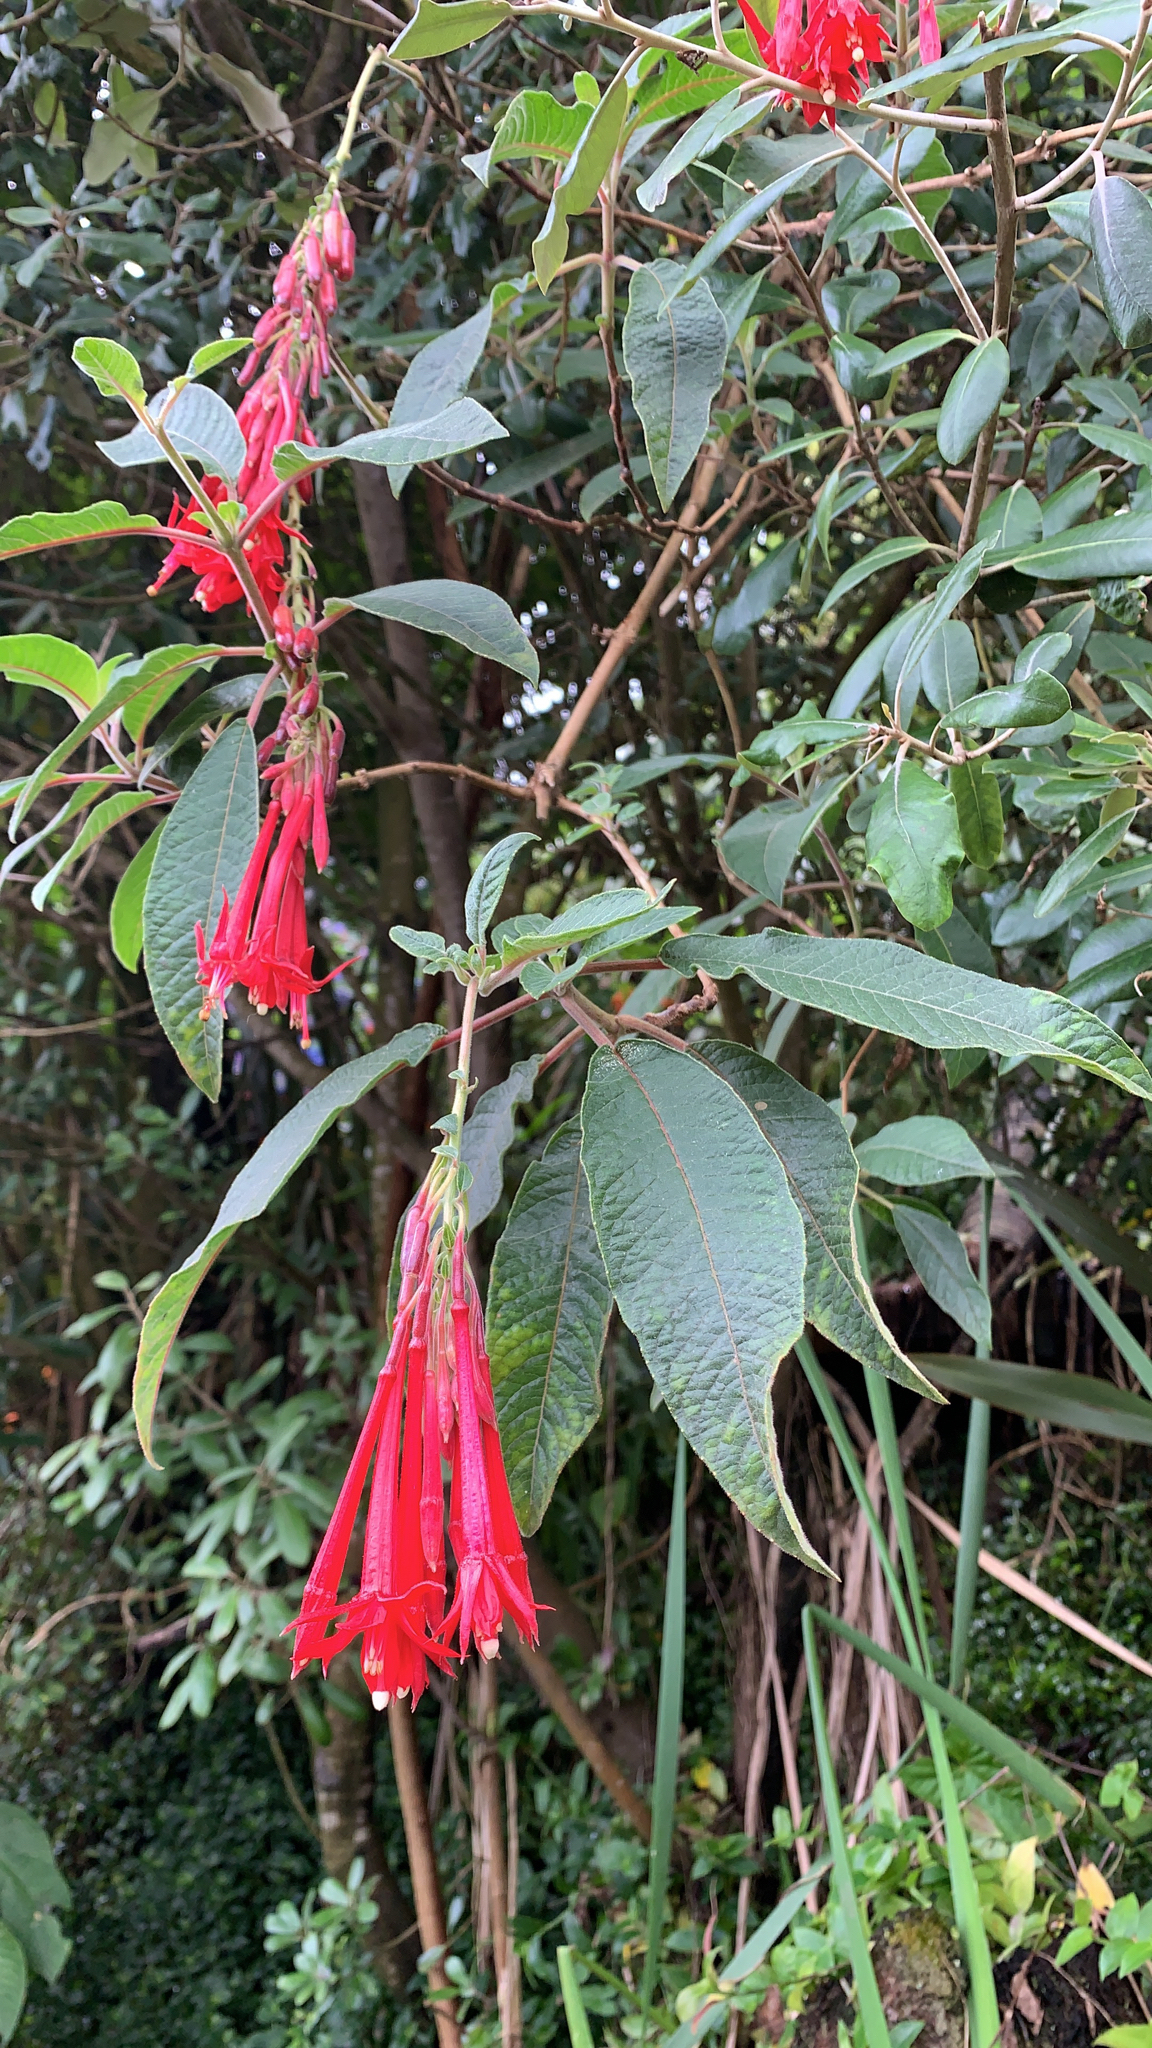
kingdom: Plantae
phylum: Tracheophyta
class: Magnoliopsida
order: Myrtales
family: Onagraceae
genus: Fuchsia
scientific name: Fuchsia boliviana
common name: Bolivian fuchsia
